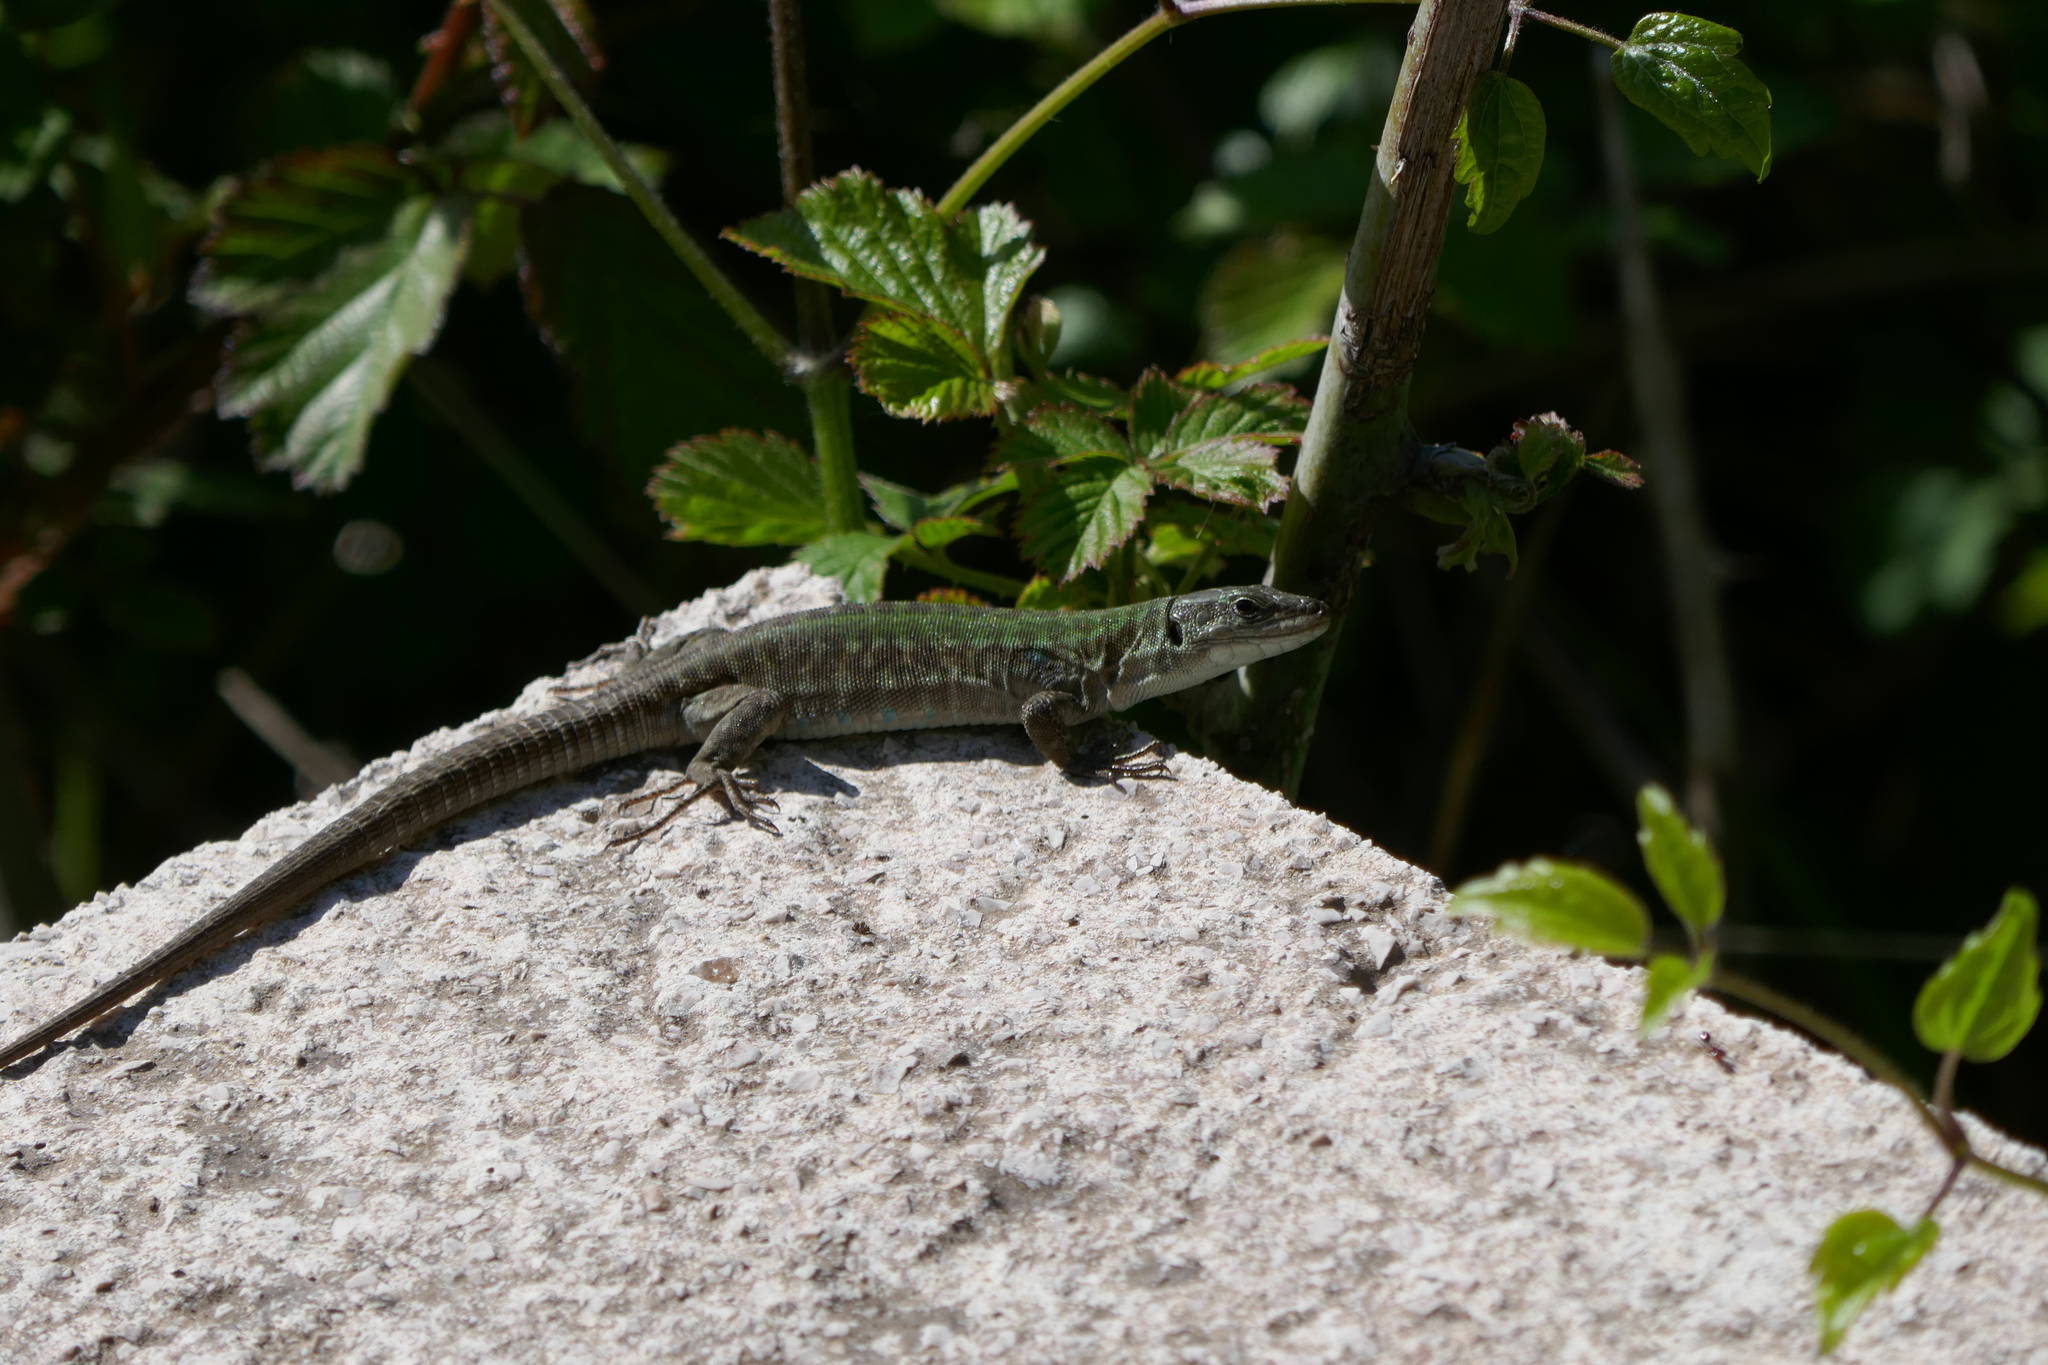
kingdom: Animalia
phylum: Chordata
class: Squamata
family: Lacertidae
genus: Podarcis
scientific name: Podarcis siculus
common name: Italian wall lizard
